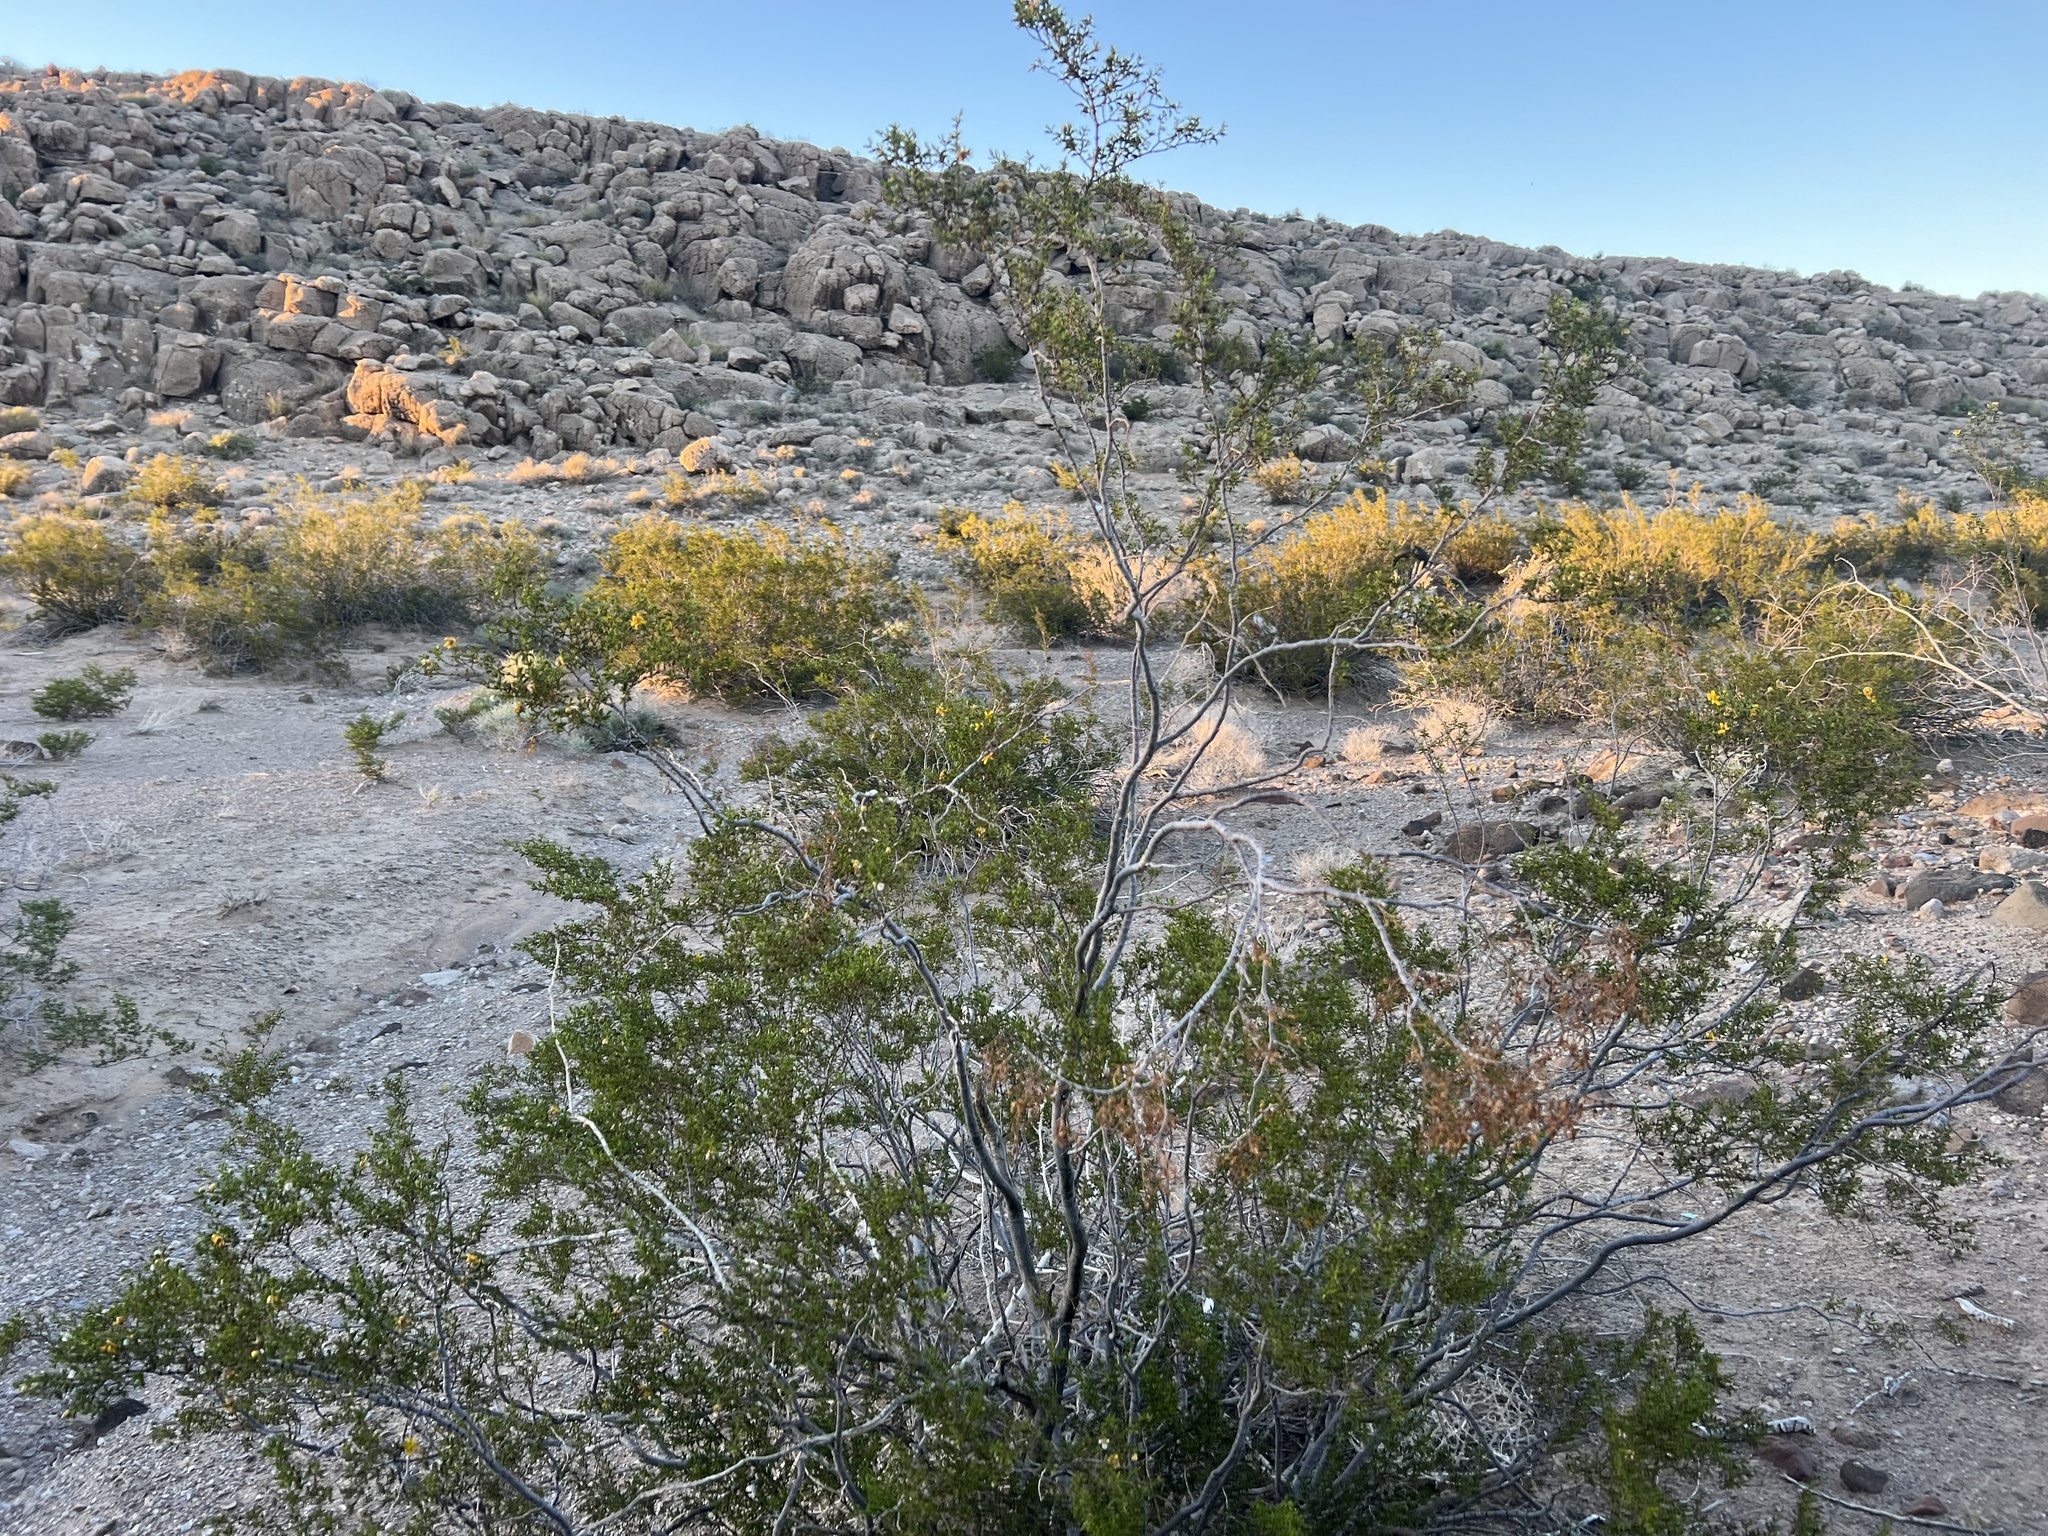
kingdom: Plantae
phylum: Tracheophyta
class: Magnoliopsida
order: Zygophyllales
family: Zygophyllaceae
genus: Larrea
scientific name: Larrea tridentata
